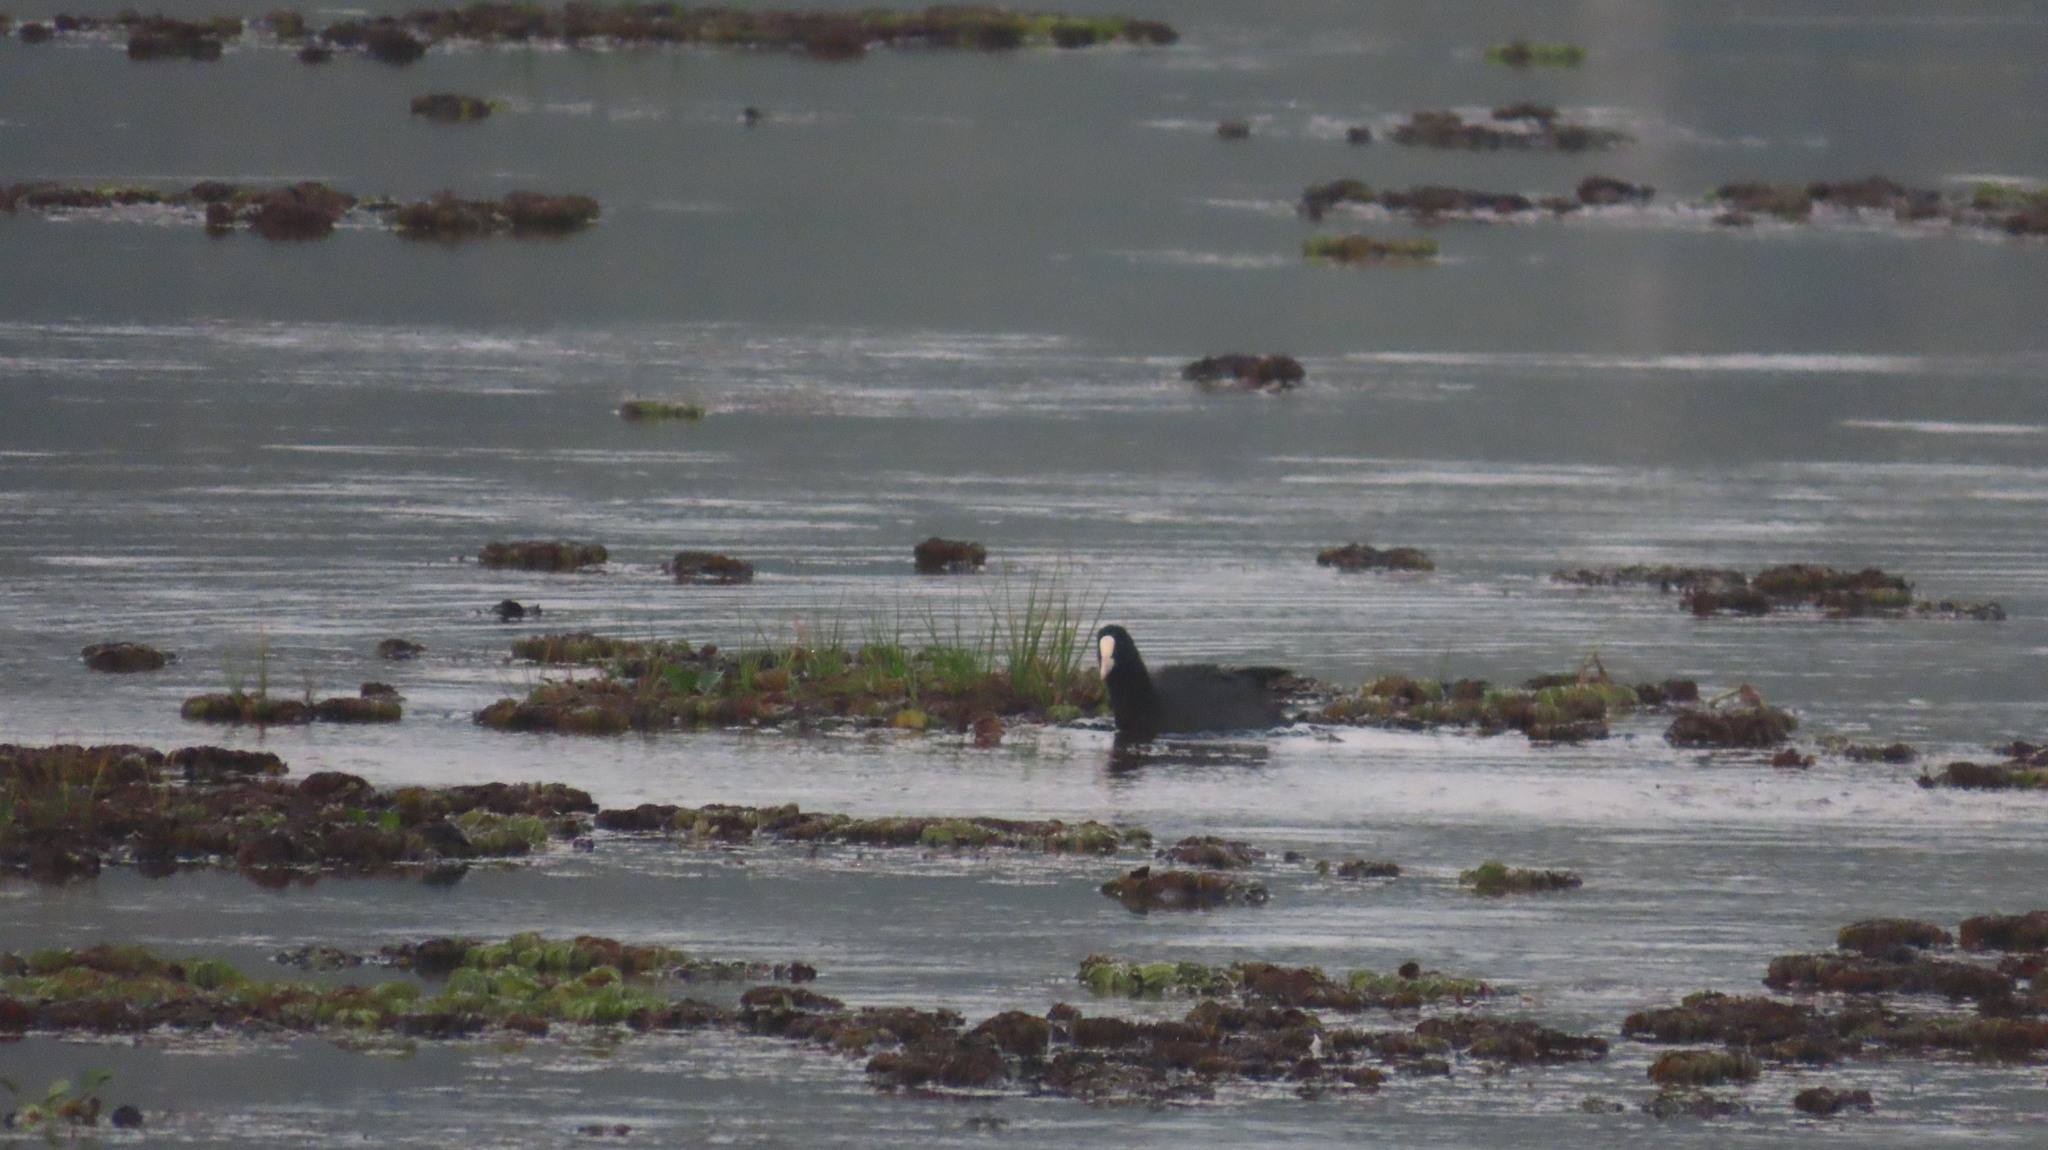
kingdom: Animalia
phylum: Chordata
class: Aves
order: Gruiformes
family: Rallidae
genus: Fulica
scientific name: Fulica atra
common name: Eurasian coot
